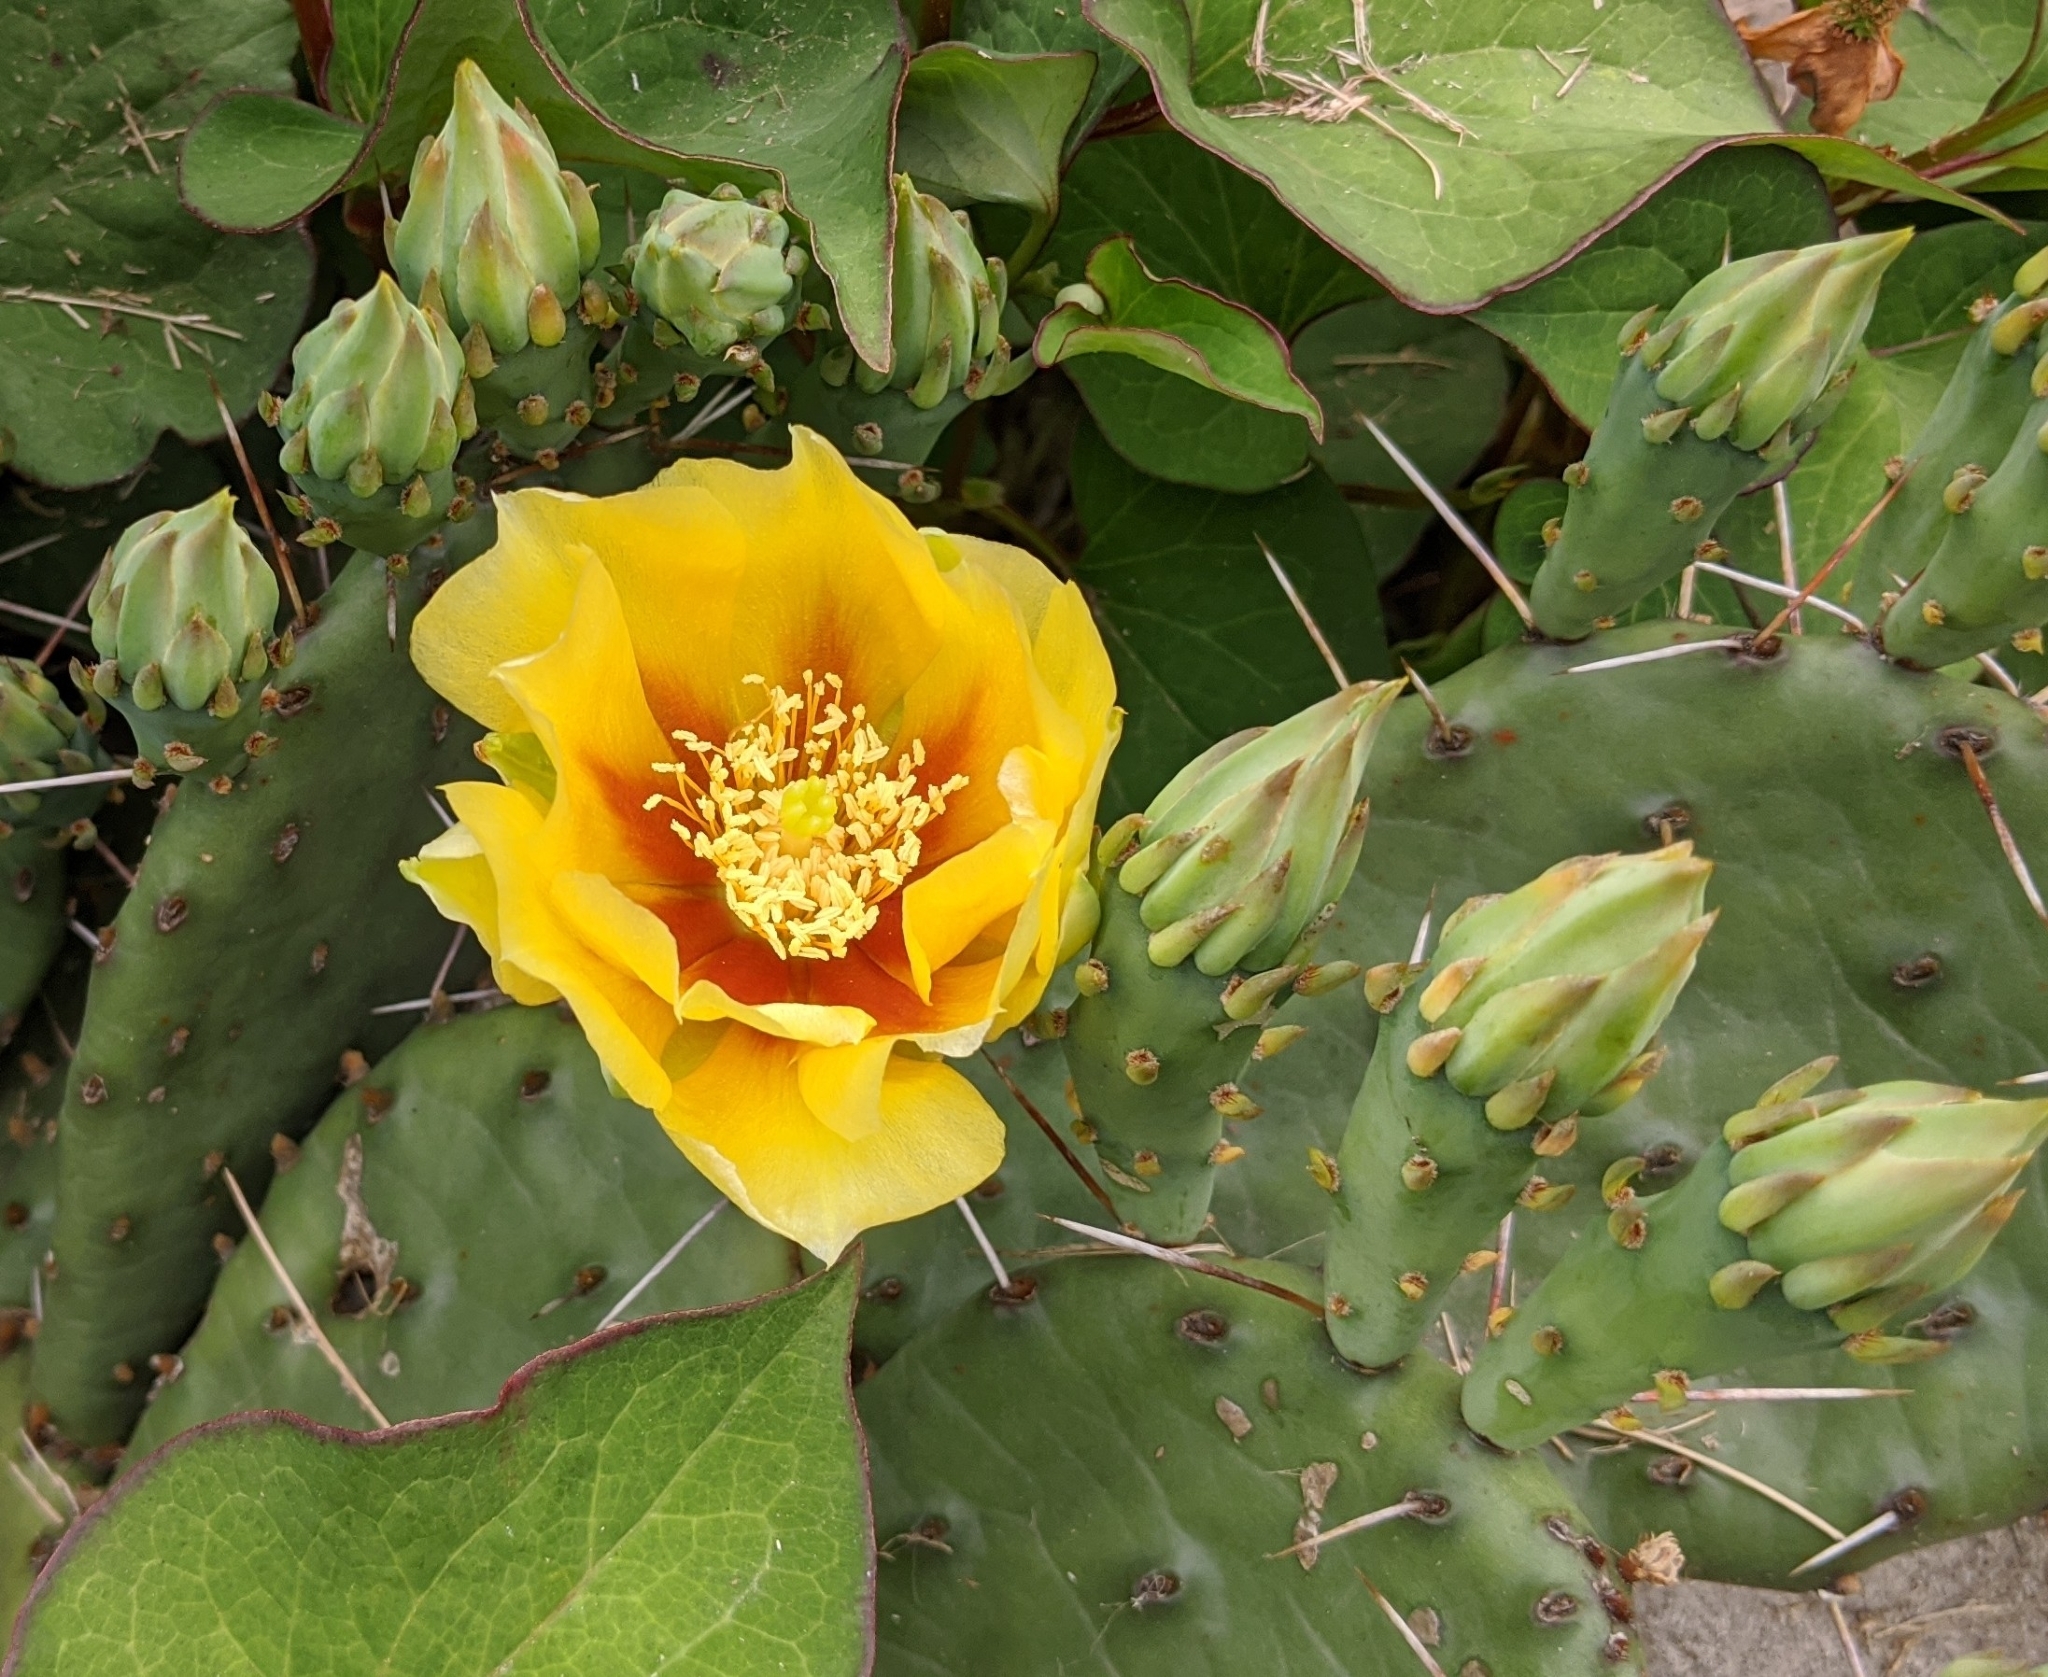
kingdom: Plantae
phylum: Tracheophyta
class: Magnoliopsida
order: Caryophyllales
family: Cactaceae
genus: Opuntia
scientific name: Opuntia humifusa
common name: Eastern prickly-pear
